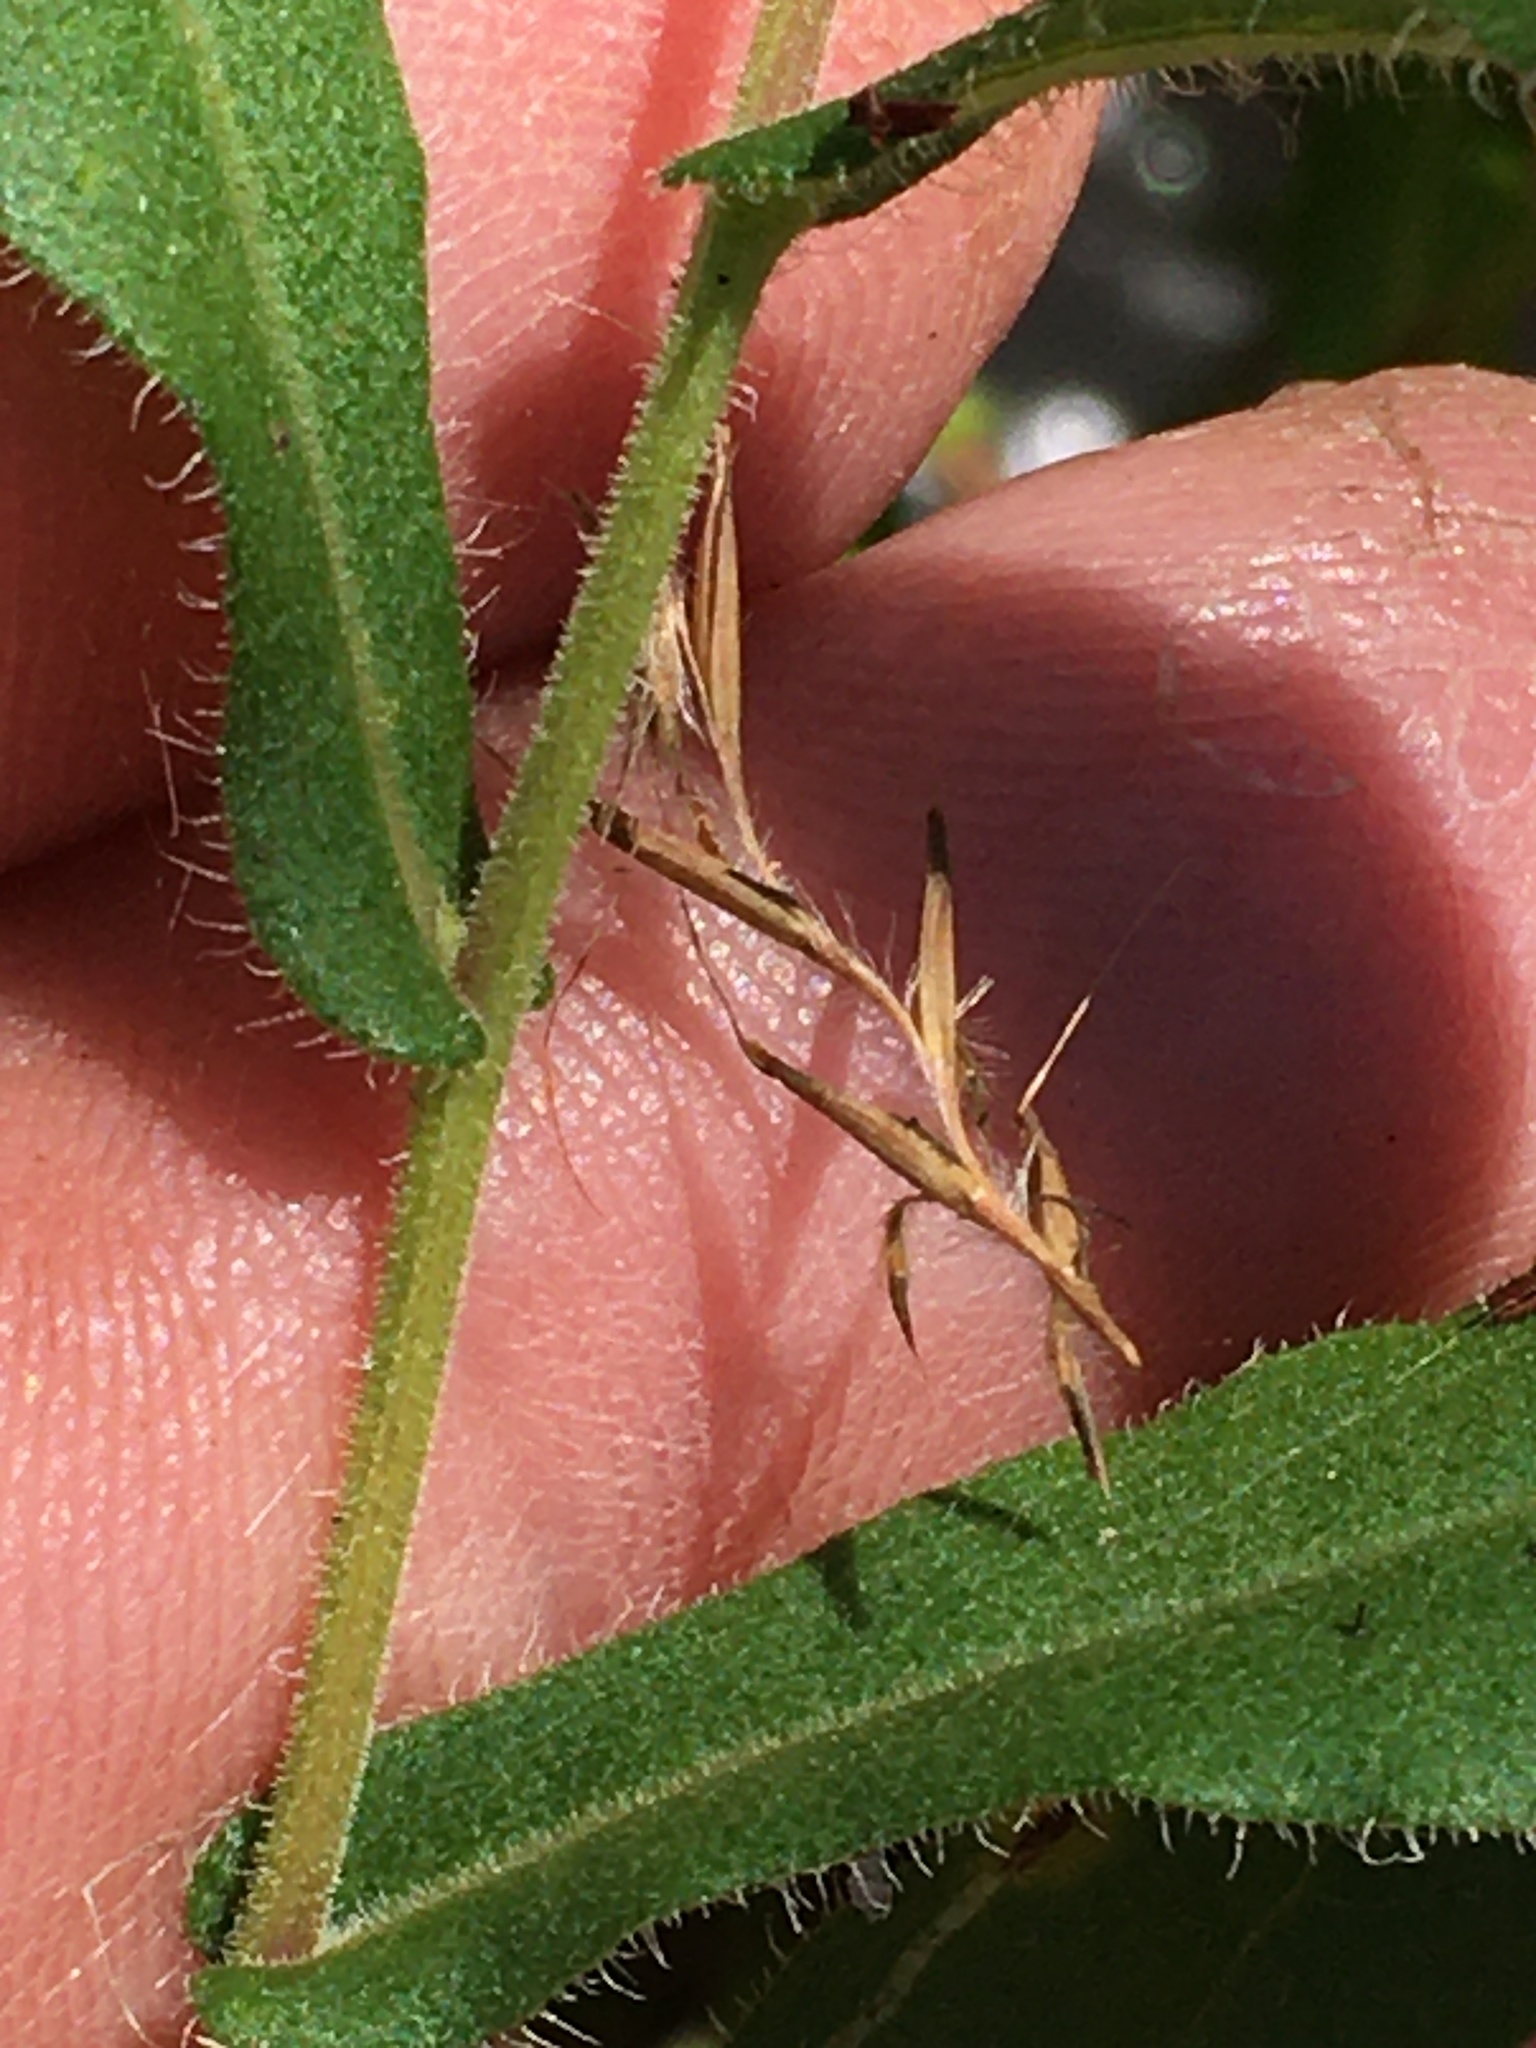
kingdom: Plantae
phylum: Tracheophyta
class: Magnoliopsida
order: Asterales
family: Asteraceae
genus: Symphyotrichum
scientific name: Symphyotrichum georgianum
